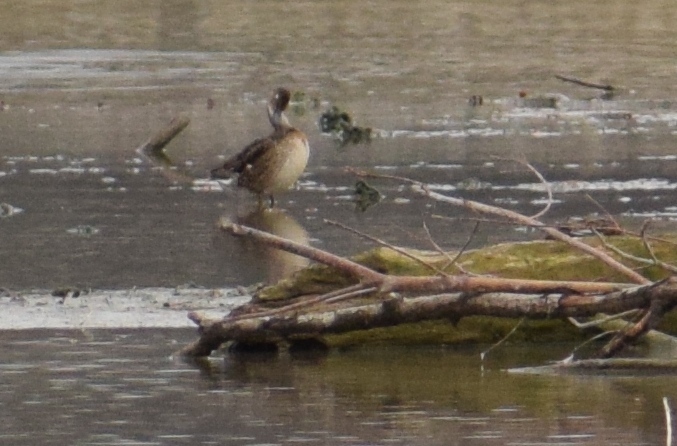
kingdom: Animalia
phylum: Chordata
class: Aves
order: Anseriformes
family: Anatidae
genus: Anas
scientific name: Anas crecca
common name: Eurasian teal
